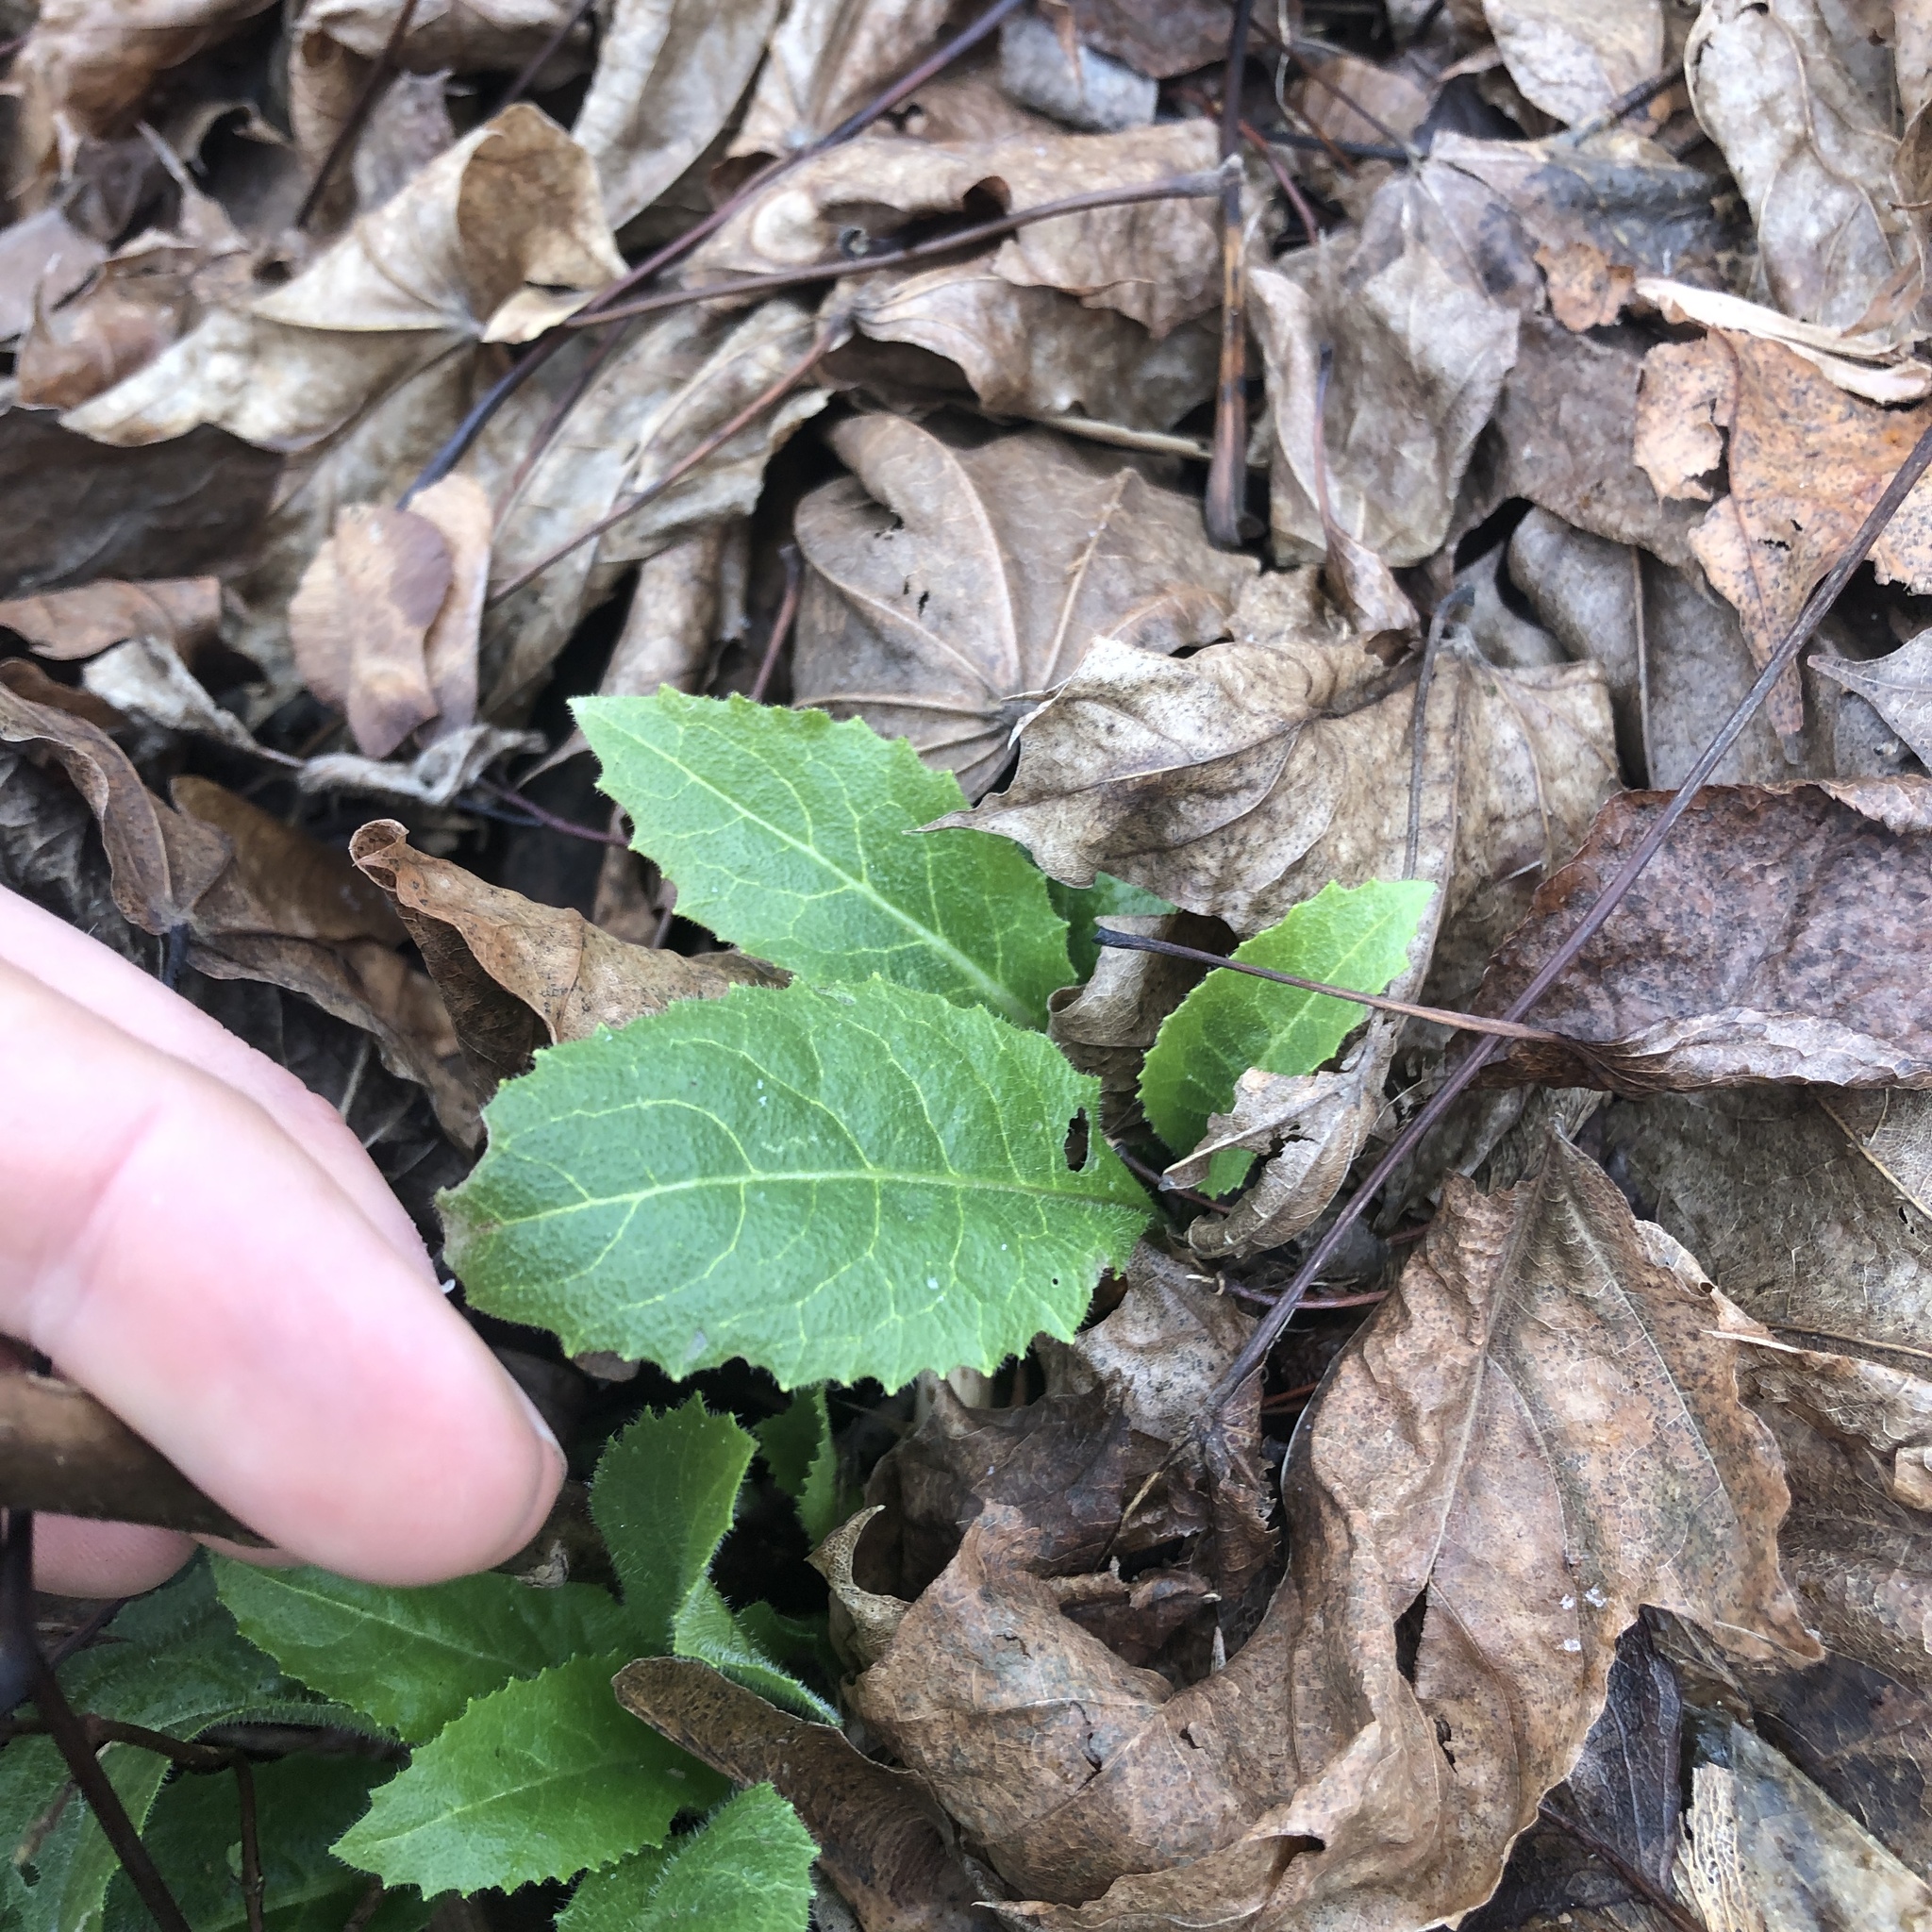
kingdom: Plantae
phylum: Tracheophyta
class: Magnoliopsida
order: Brassicales
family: Brassicaceae
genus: Hesperis
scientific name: Hesperis matronalis
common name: Dame's-violet
